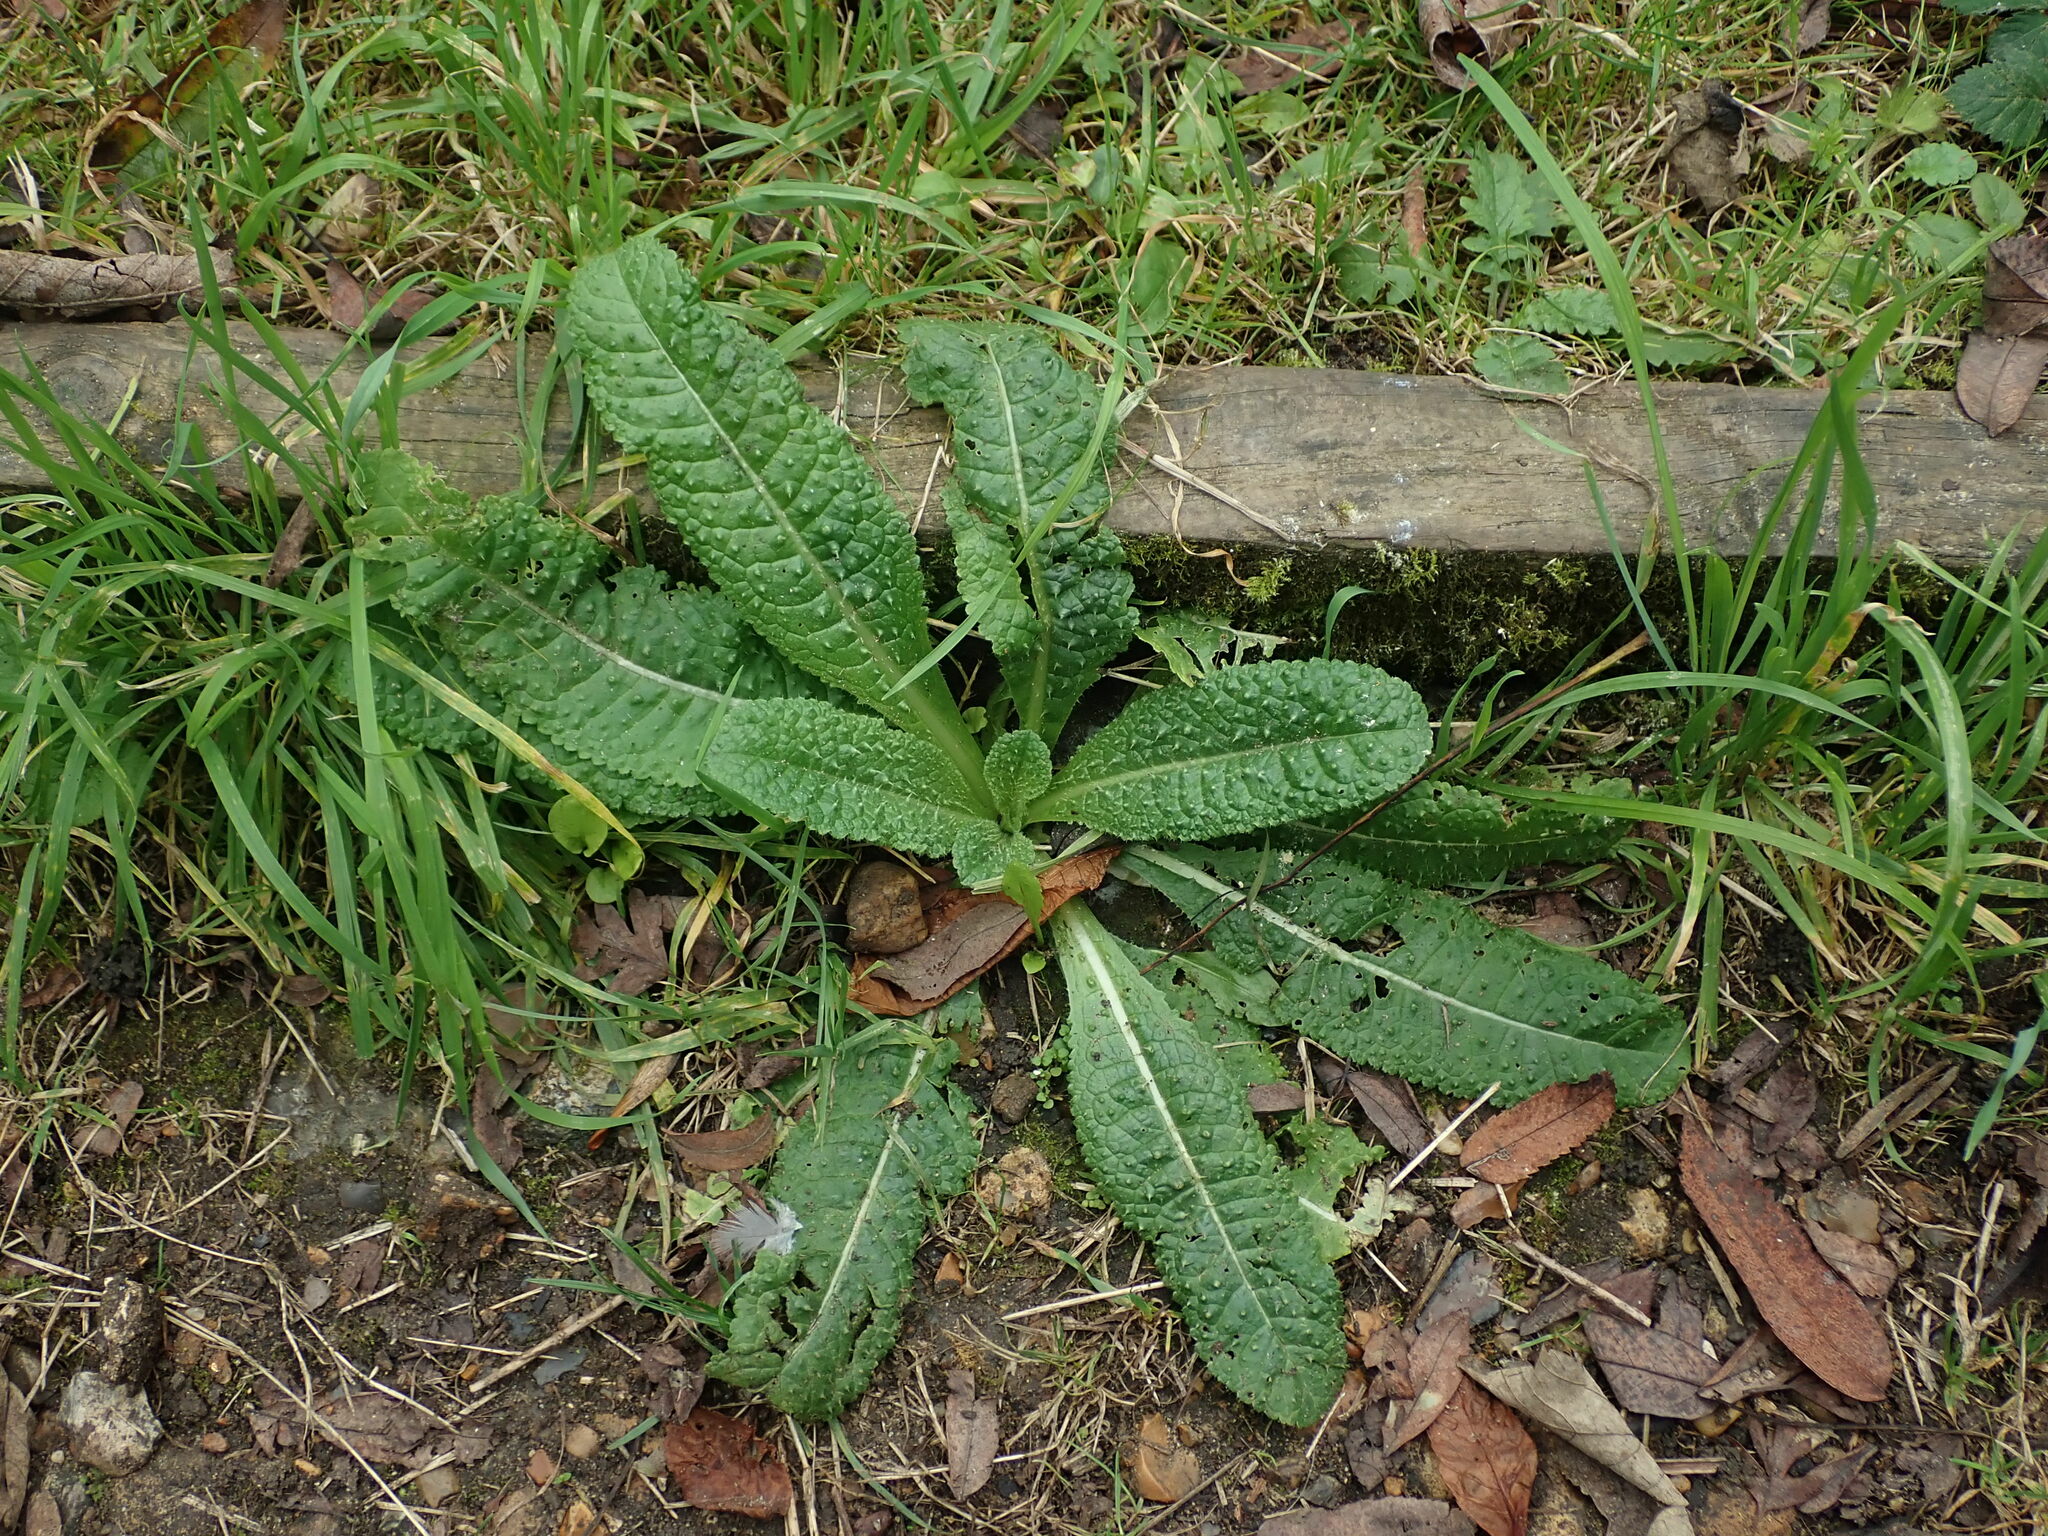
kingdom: Plantae
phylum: Tracheophyta
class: Magnoliopsida
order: Dipsacales
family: Caprifoliaceae
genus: Dipsacus
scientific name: Dipsacus fullonum
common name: Teasel
